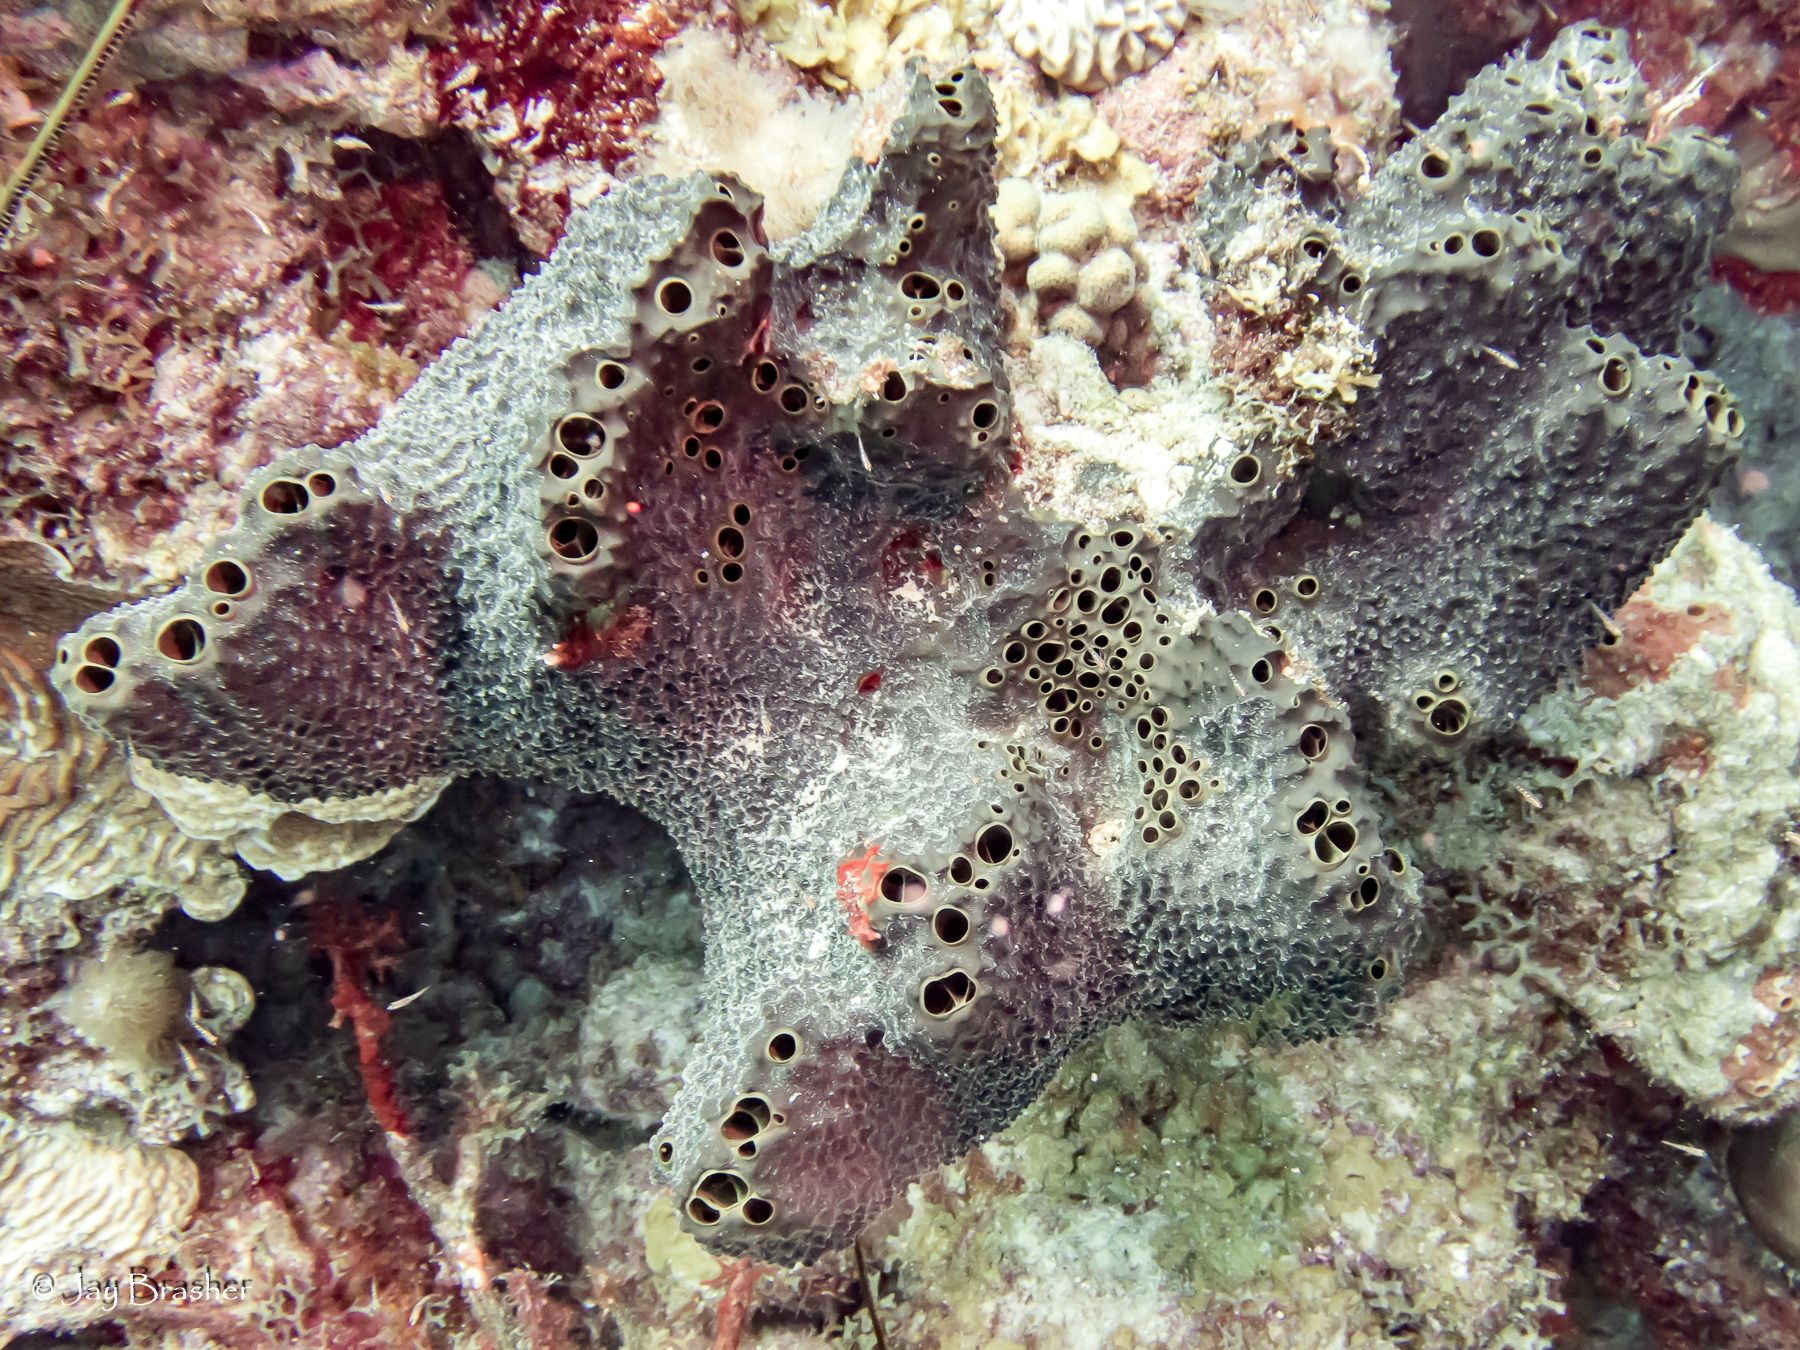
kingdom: Animalia
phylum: Porifera
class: Demospongiae
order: Dictyoceratida
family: Thorectidae
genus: Smenospongia
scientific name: Smenospongia conulosa
